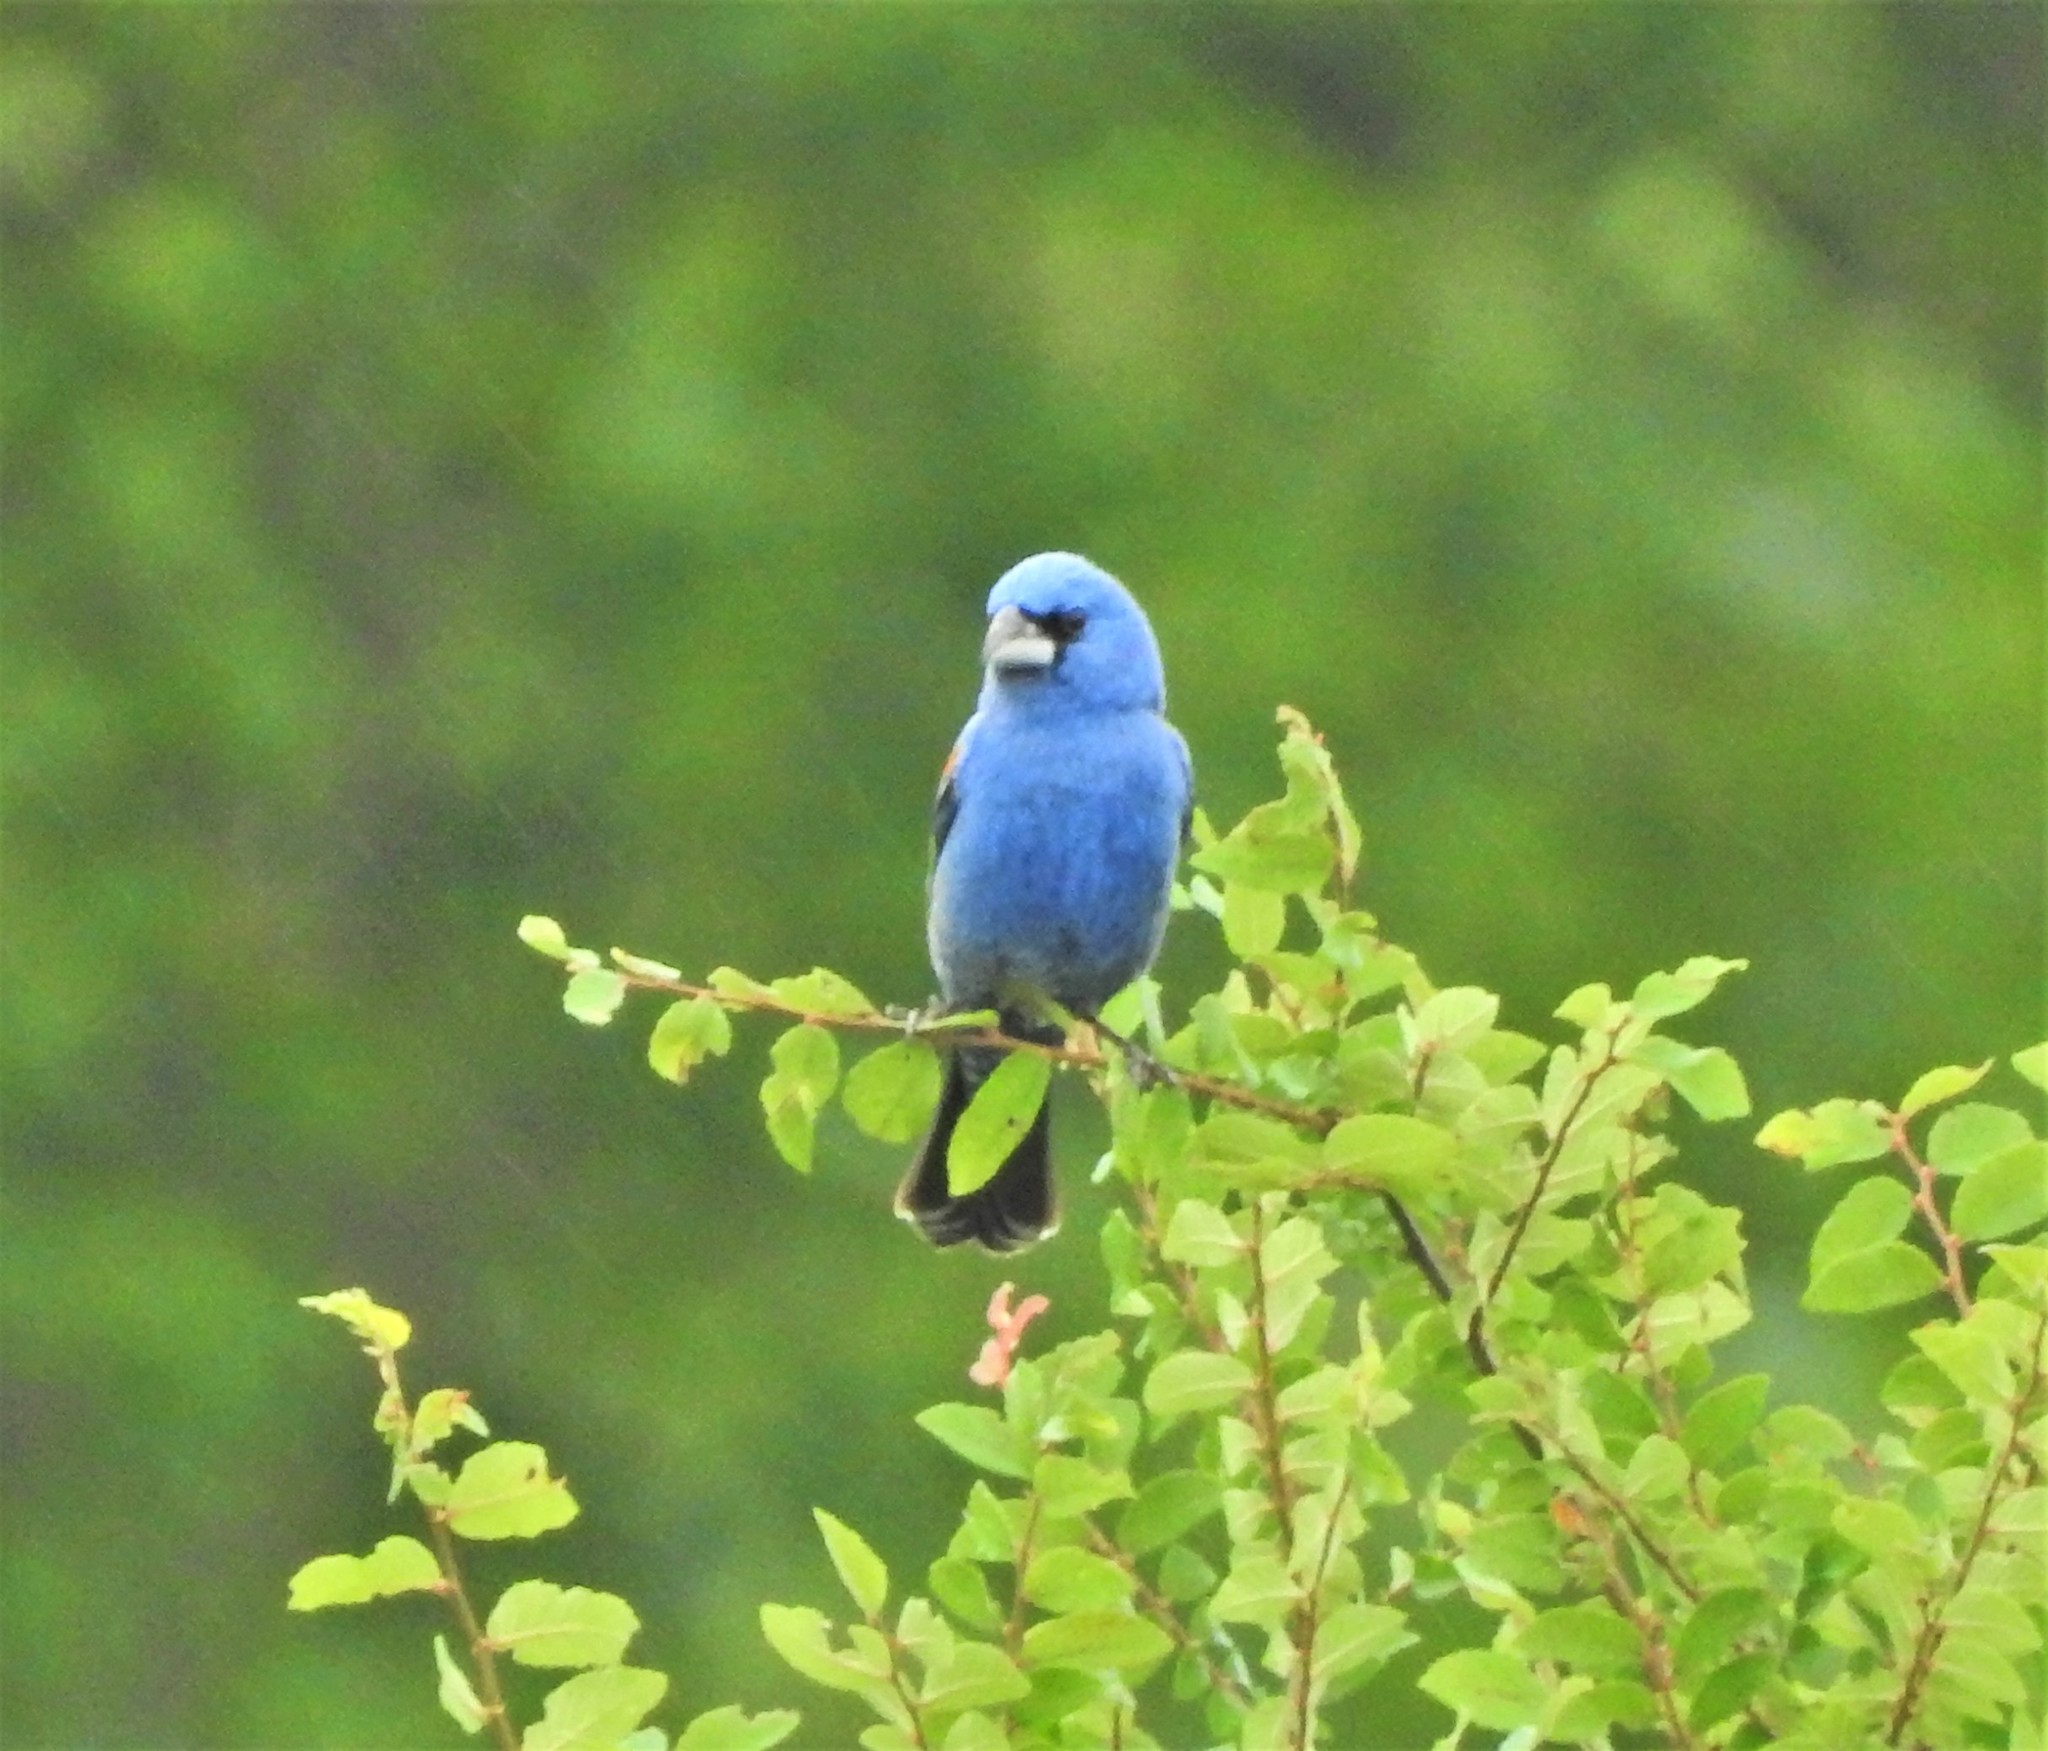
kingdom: Animalia
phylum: Chordata
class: Aves
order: Passeriformes
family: Cardinalidae
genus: Passerina
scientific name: Passerina caerulea
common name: Blue grosbeak
